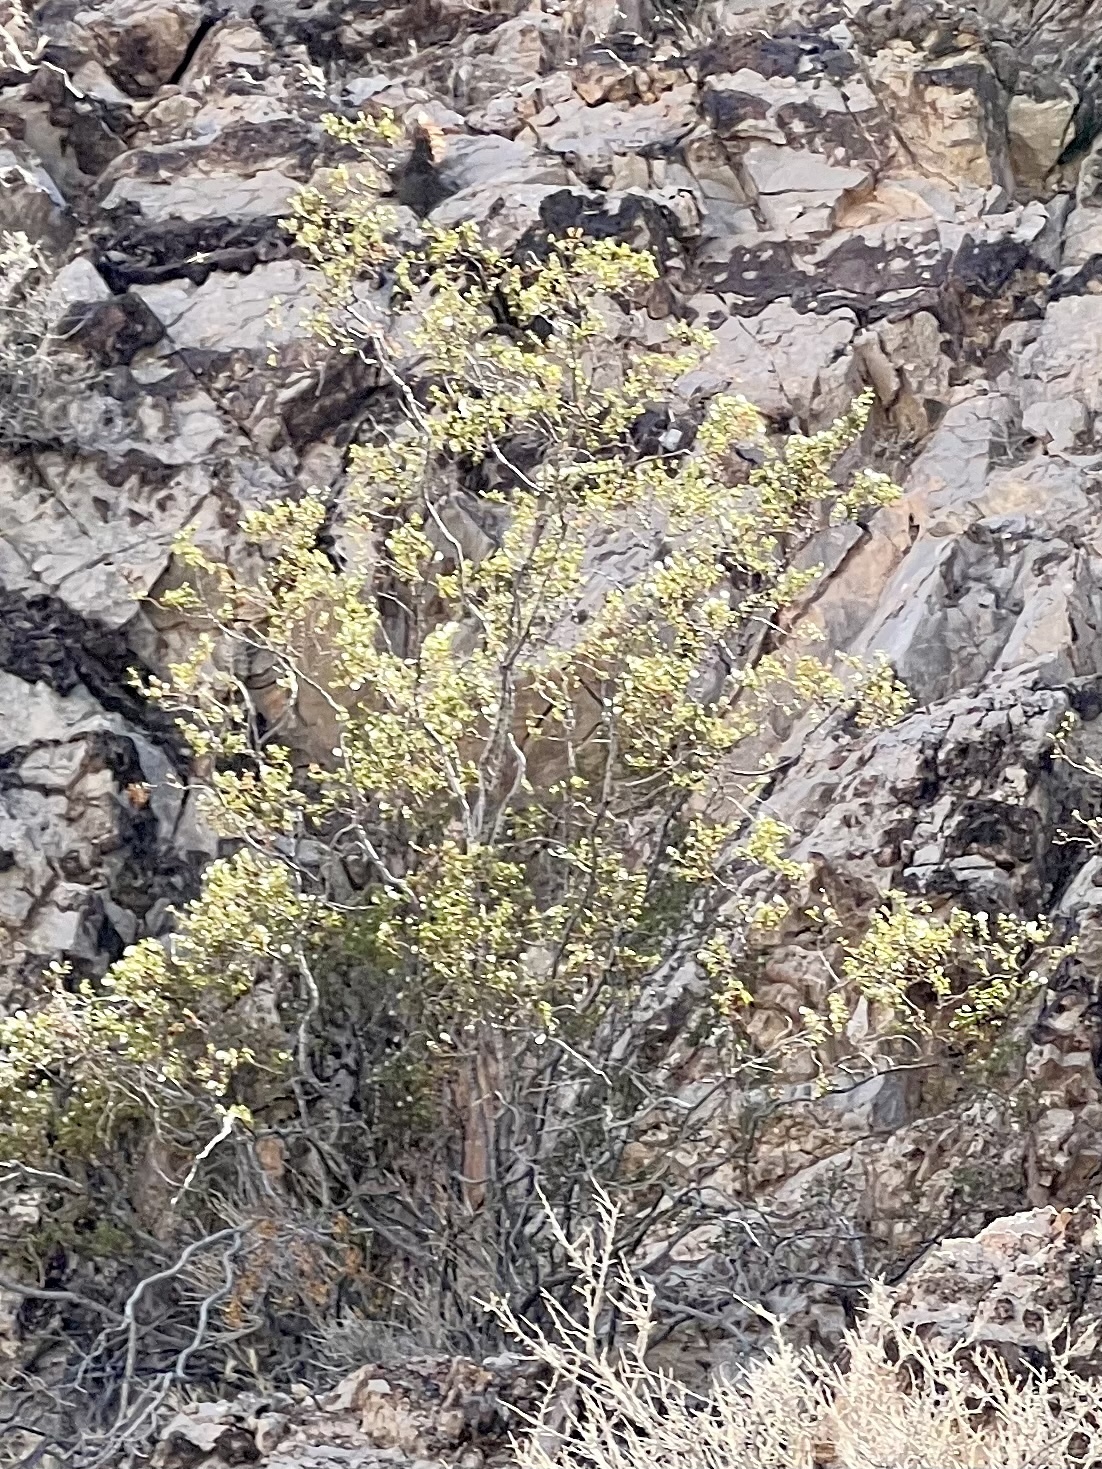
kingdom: Plantae
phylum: Tracheophyta
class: Magnoliopsida
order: Zygophyllales
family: Zygophyllaceae
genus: Larrea
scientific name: Larrea tridentata
